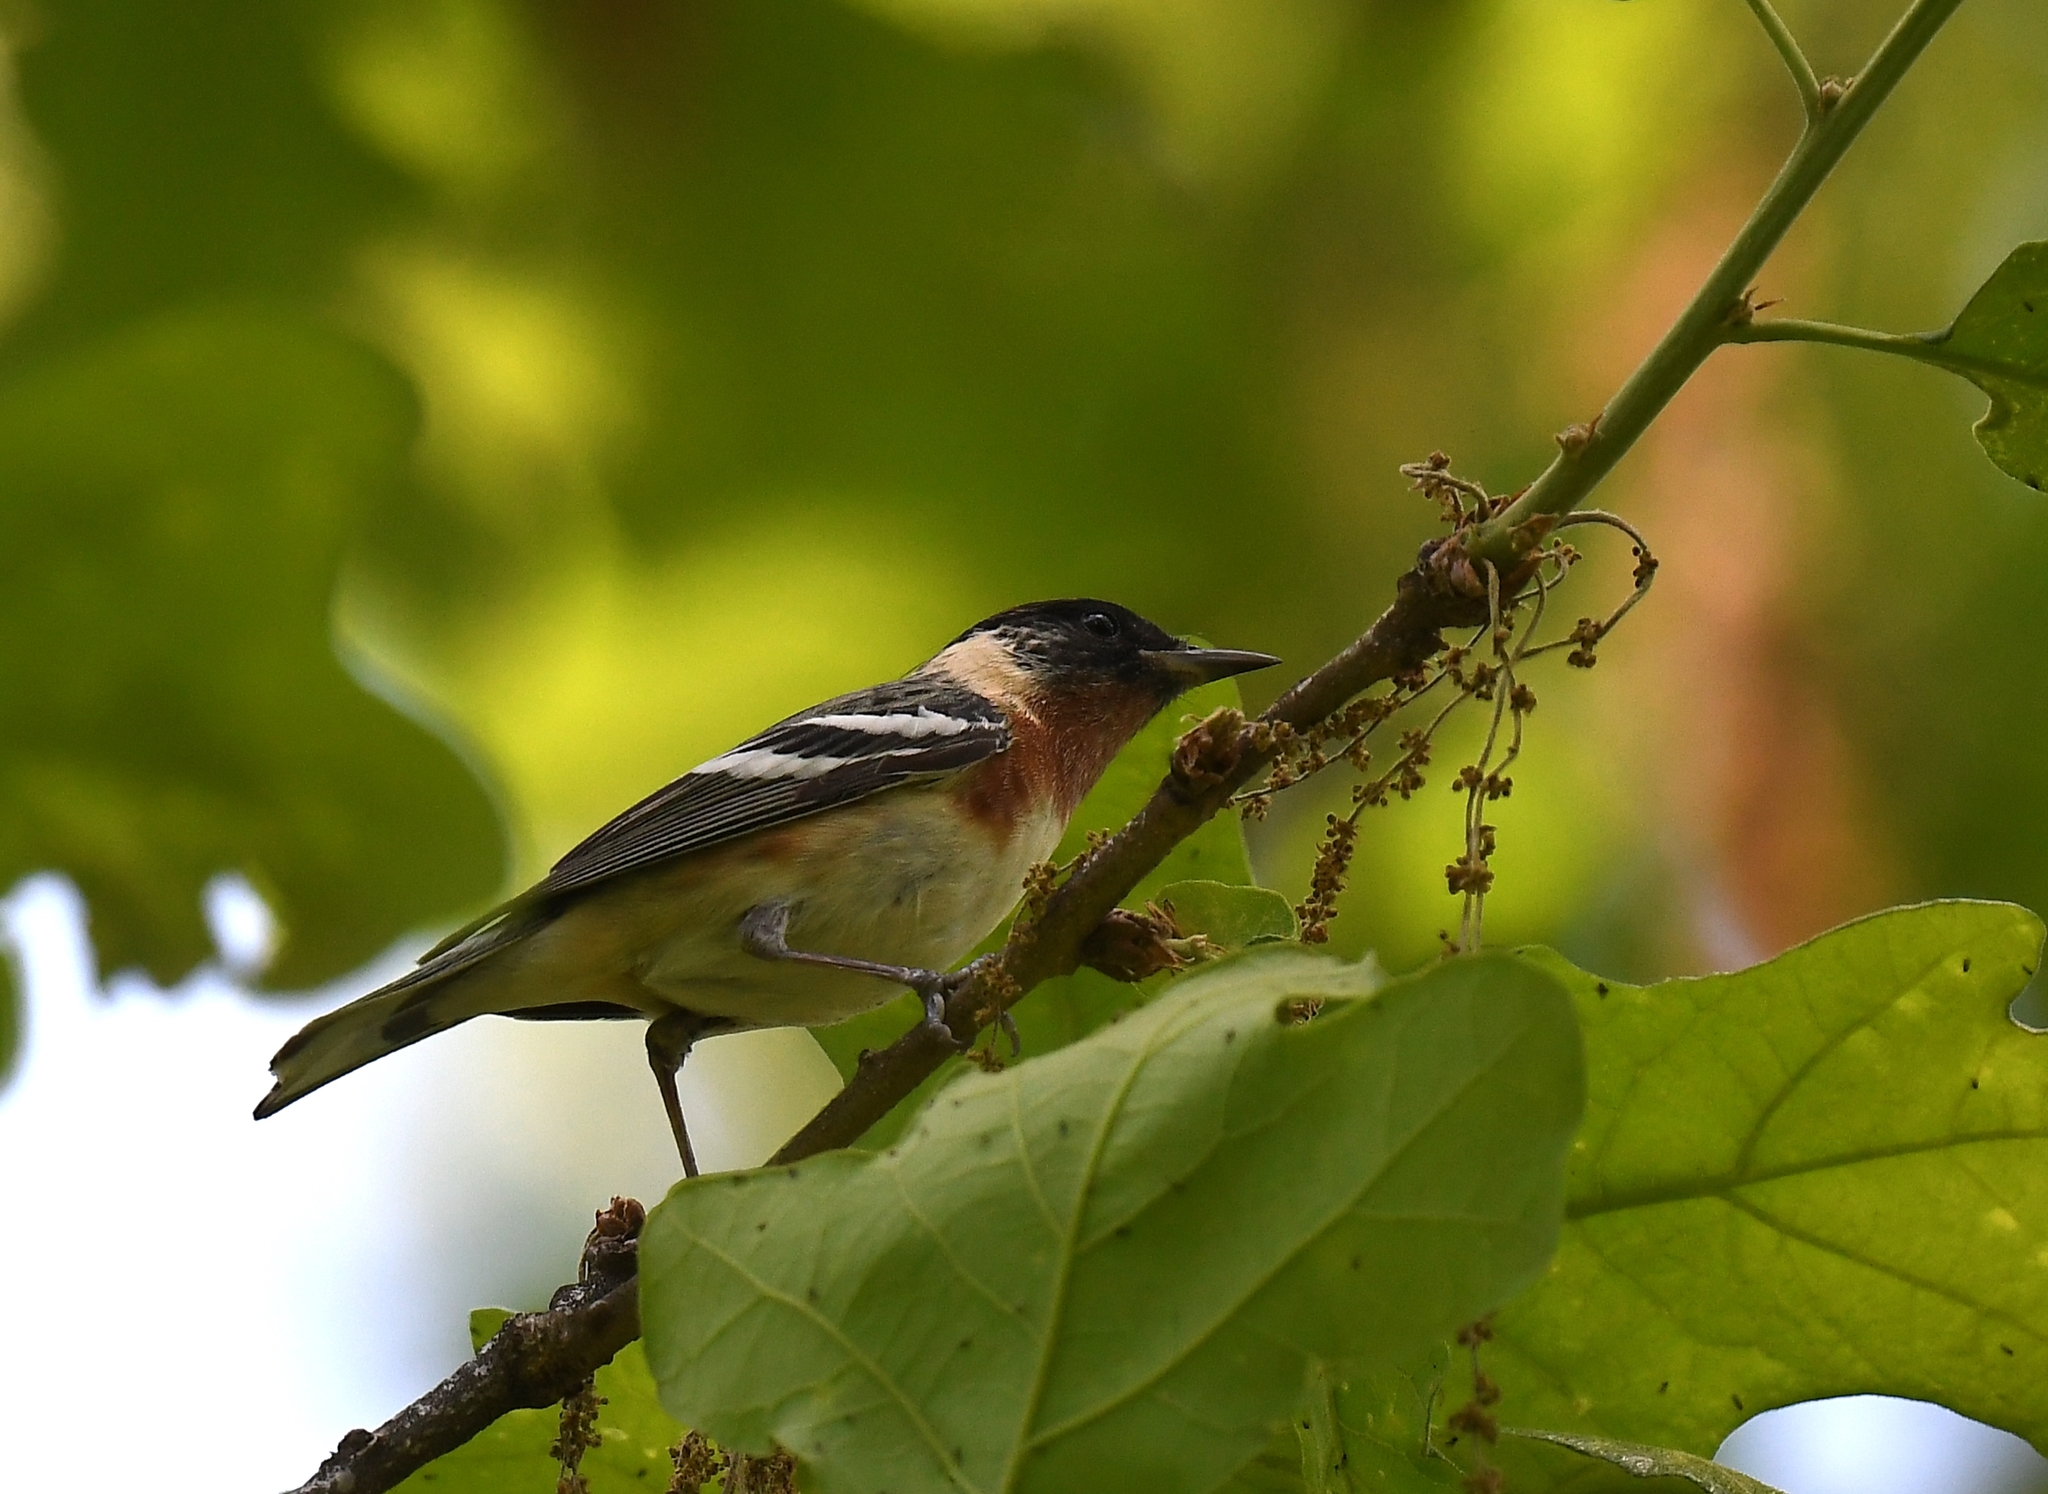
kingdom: Animalia
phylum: Chordata
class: Aves
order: Passeriformes
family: Parulidae
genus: Setophaga
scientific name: Setophaga castanea
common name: Bay-breasted warbler
